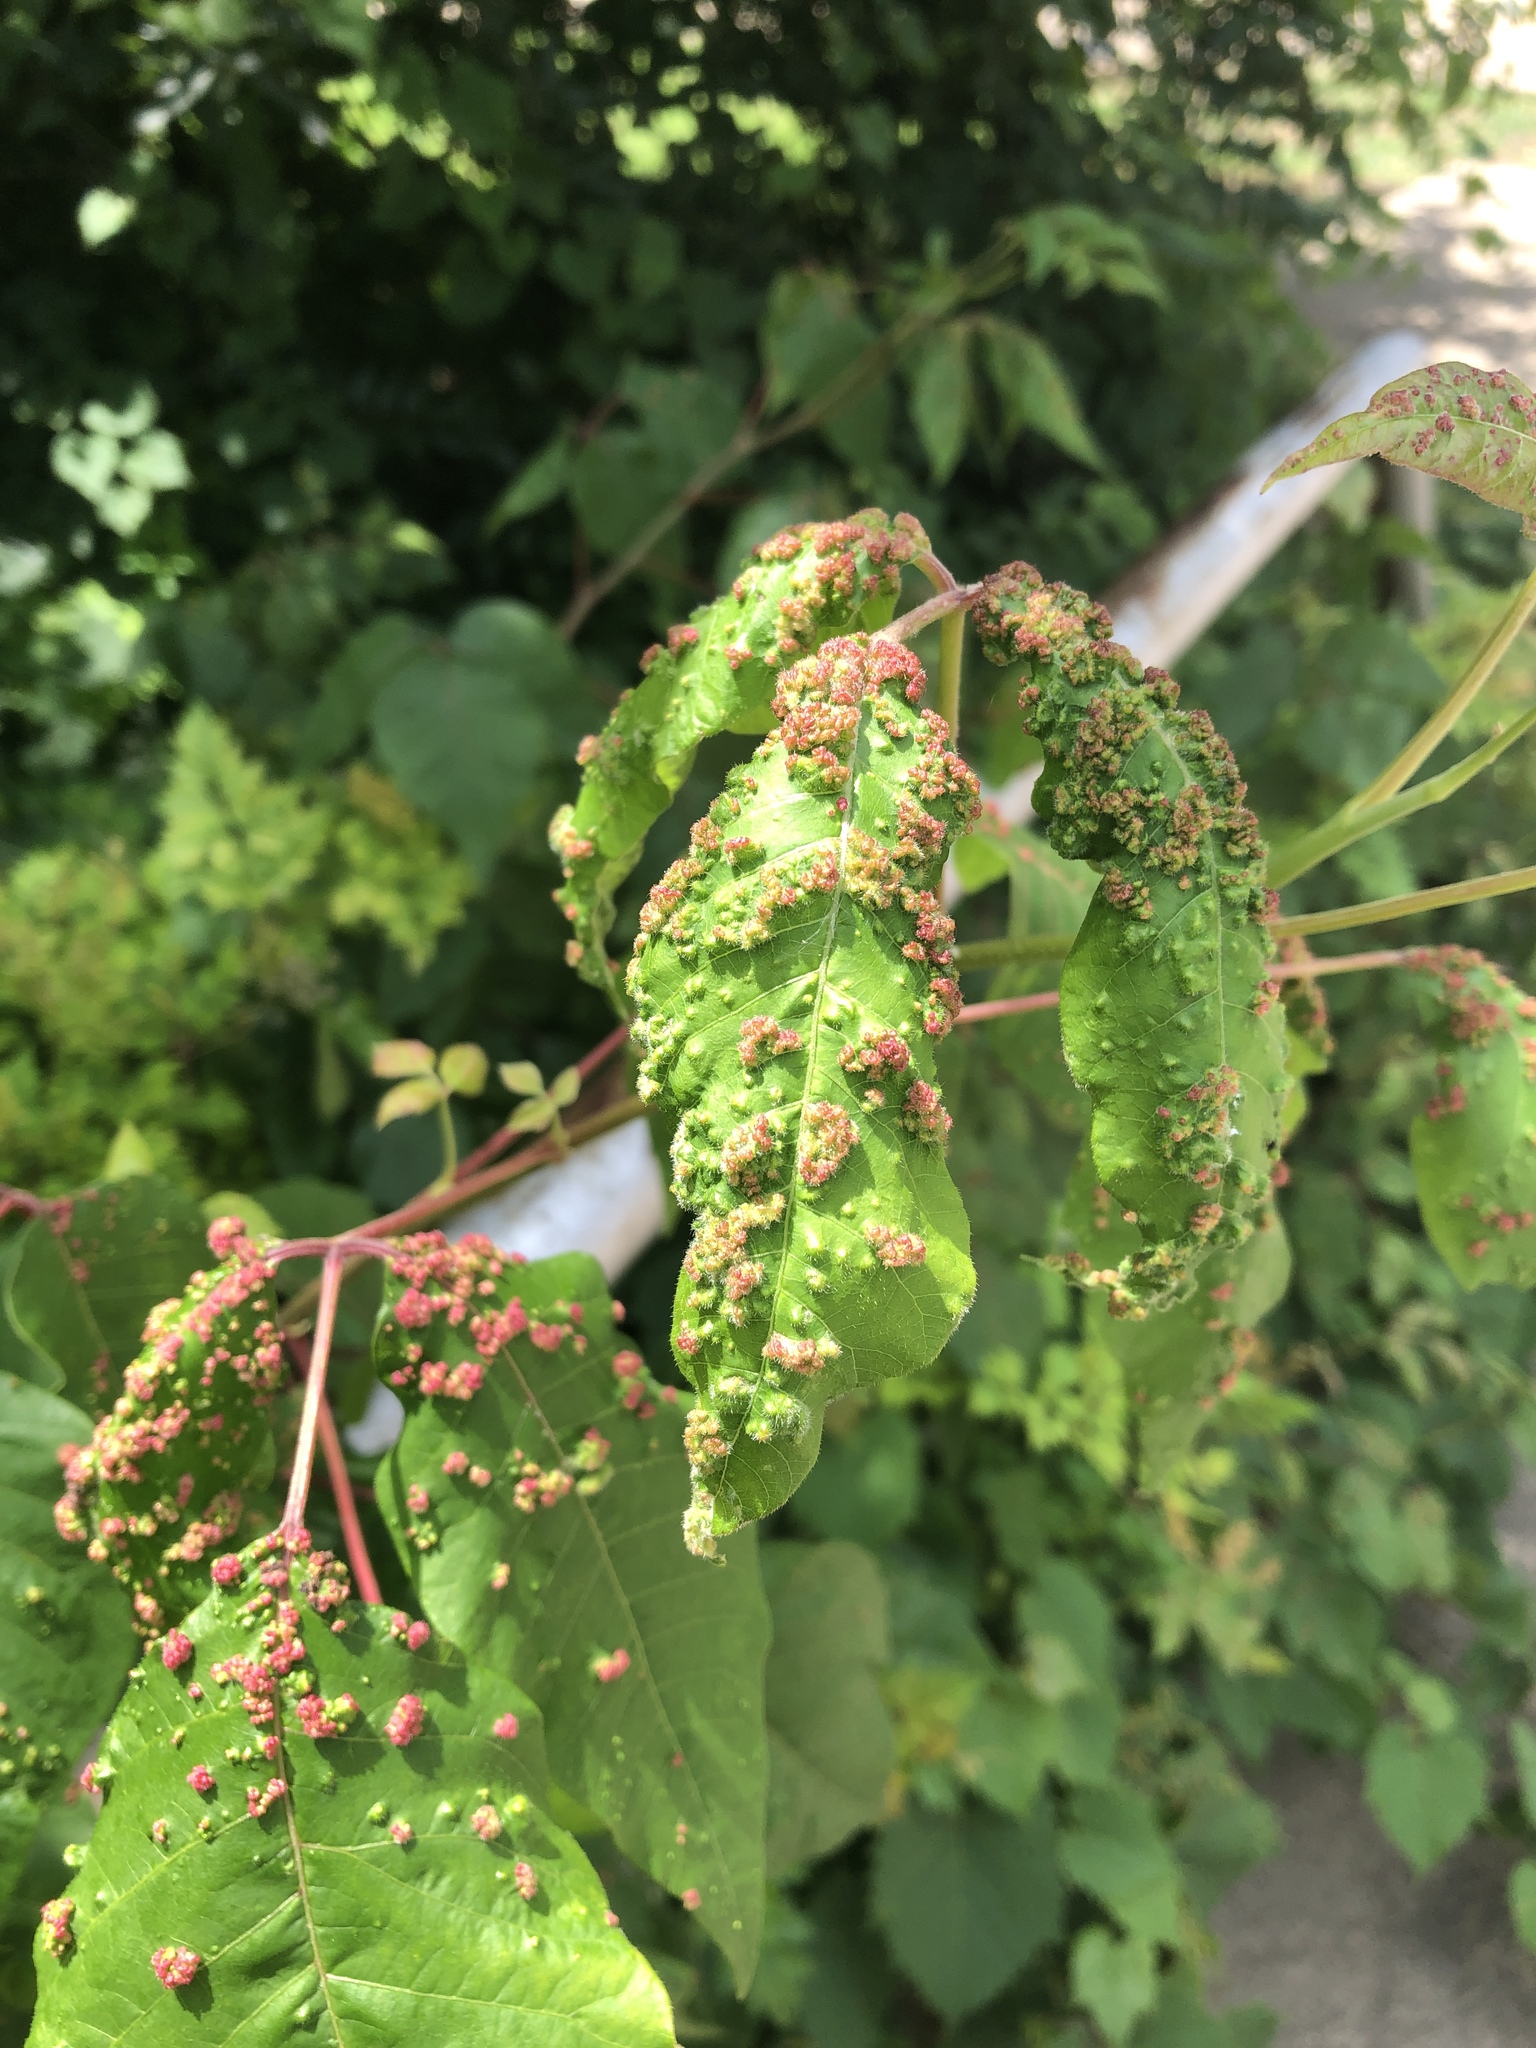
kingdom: Animalia
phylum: Arthropoda
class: Arachnida
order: Trombidiformes
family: Eriophyidae
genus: Aculops
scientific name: Aculops
